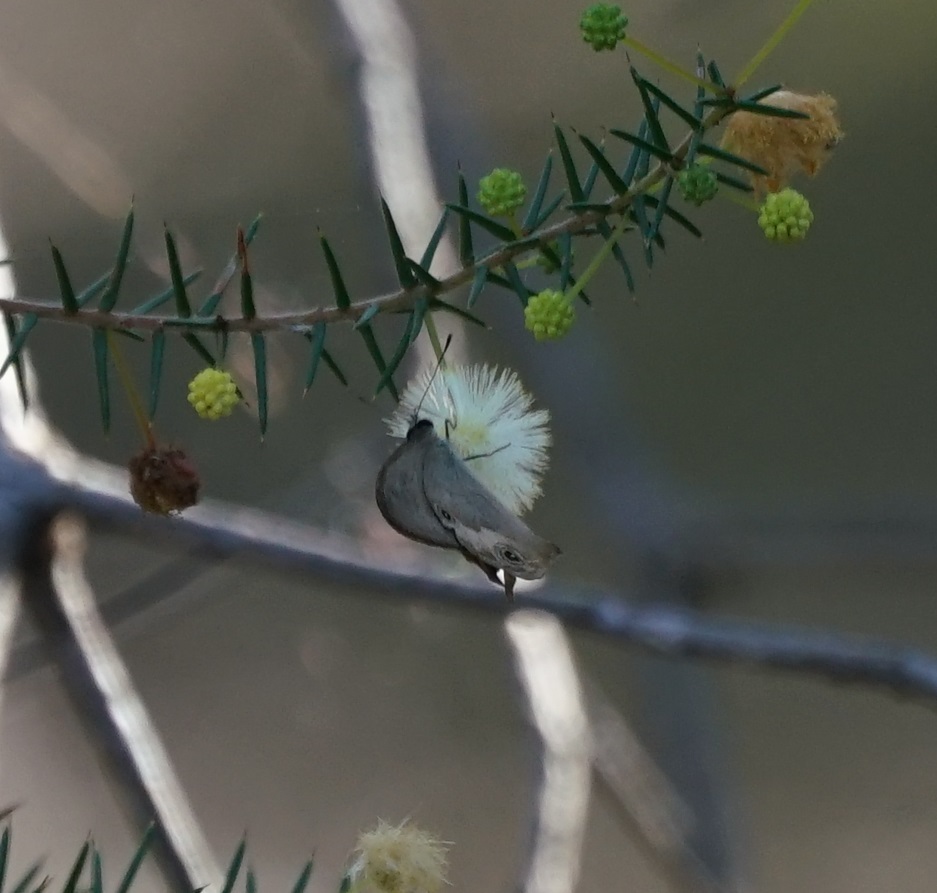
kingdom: Animalia
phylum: Arthropoda
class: Insecta
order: Lepidoptera
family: Nymphalidae
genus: Hypocysta
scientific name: Hypocysta metirius
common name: Brown ringlet
